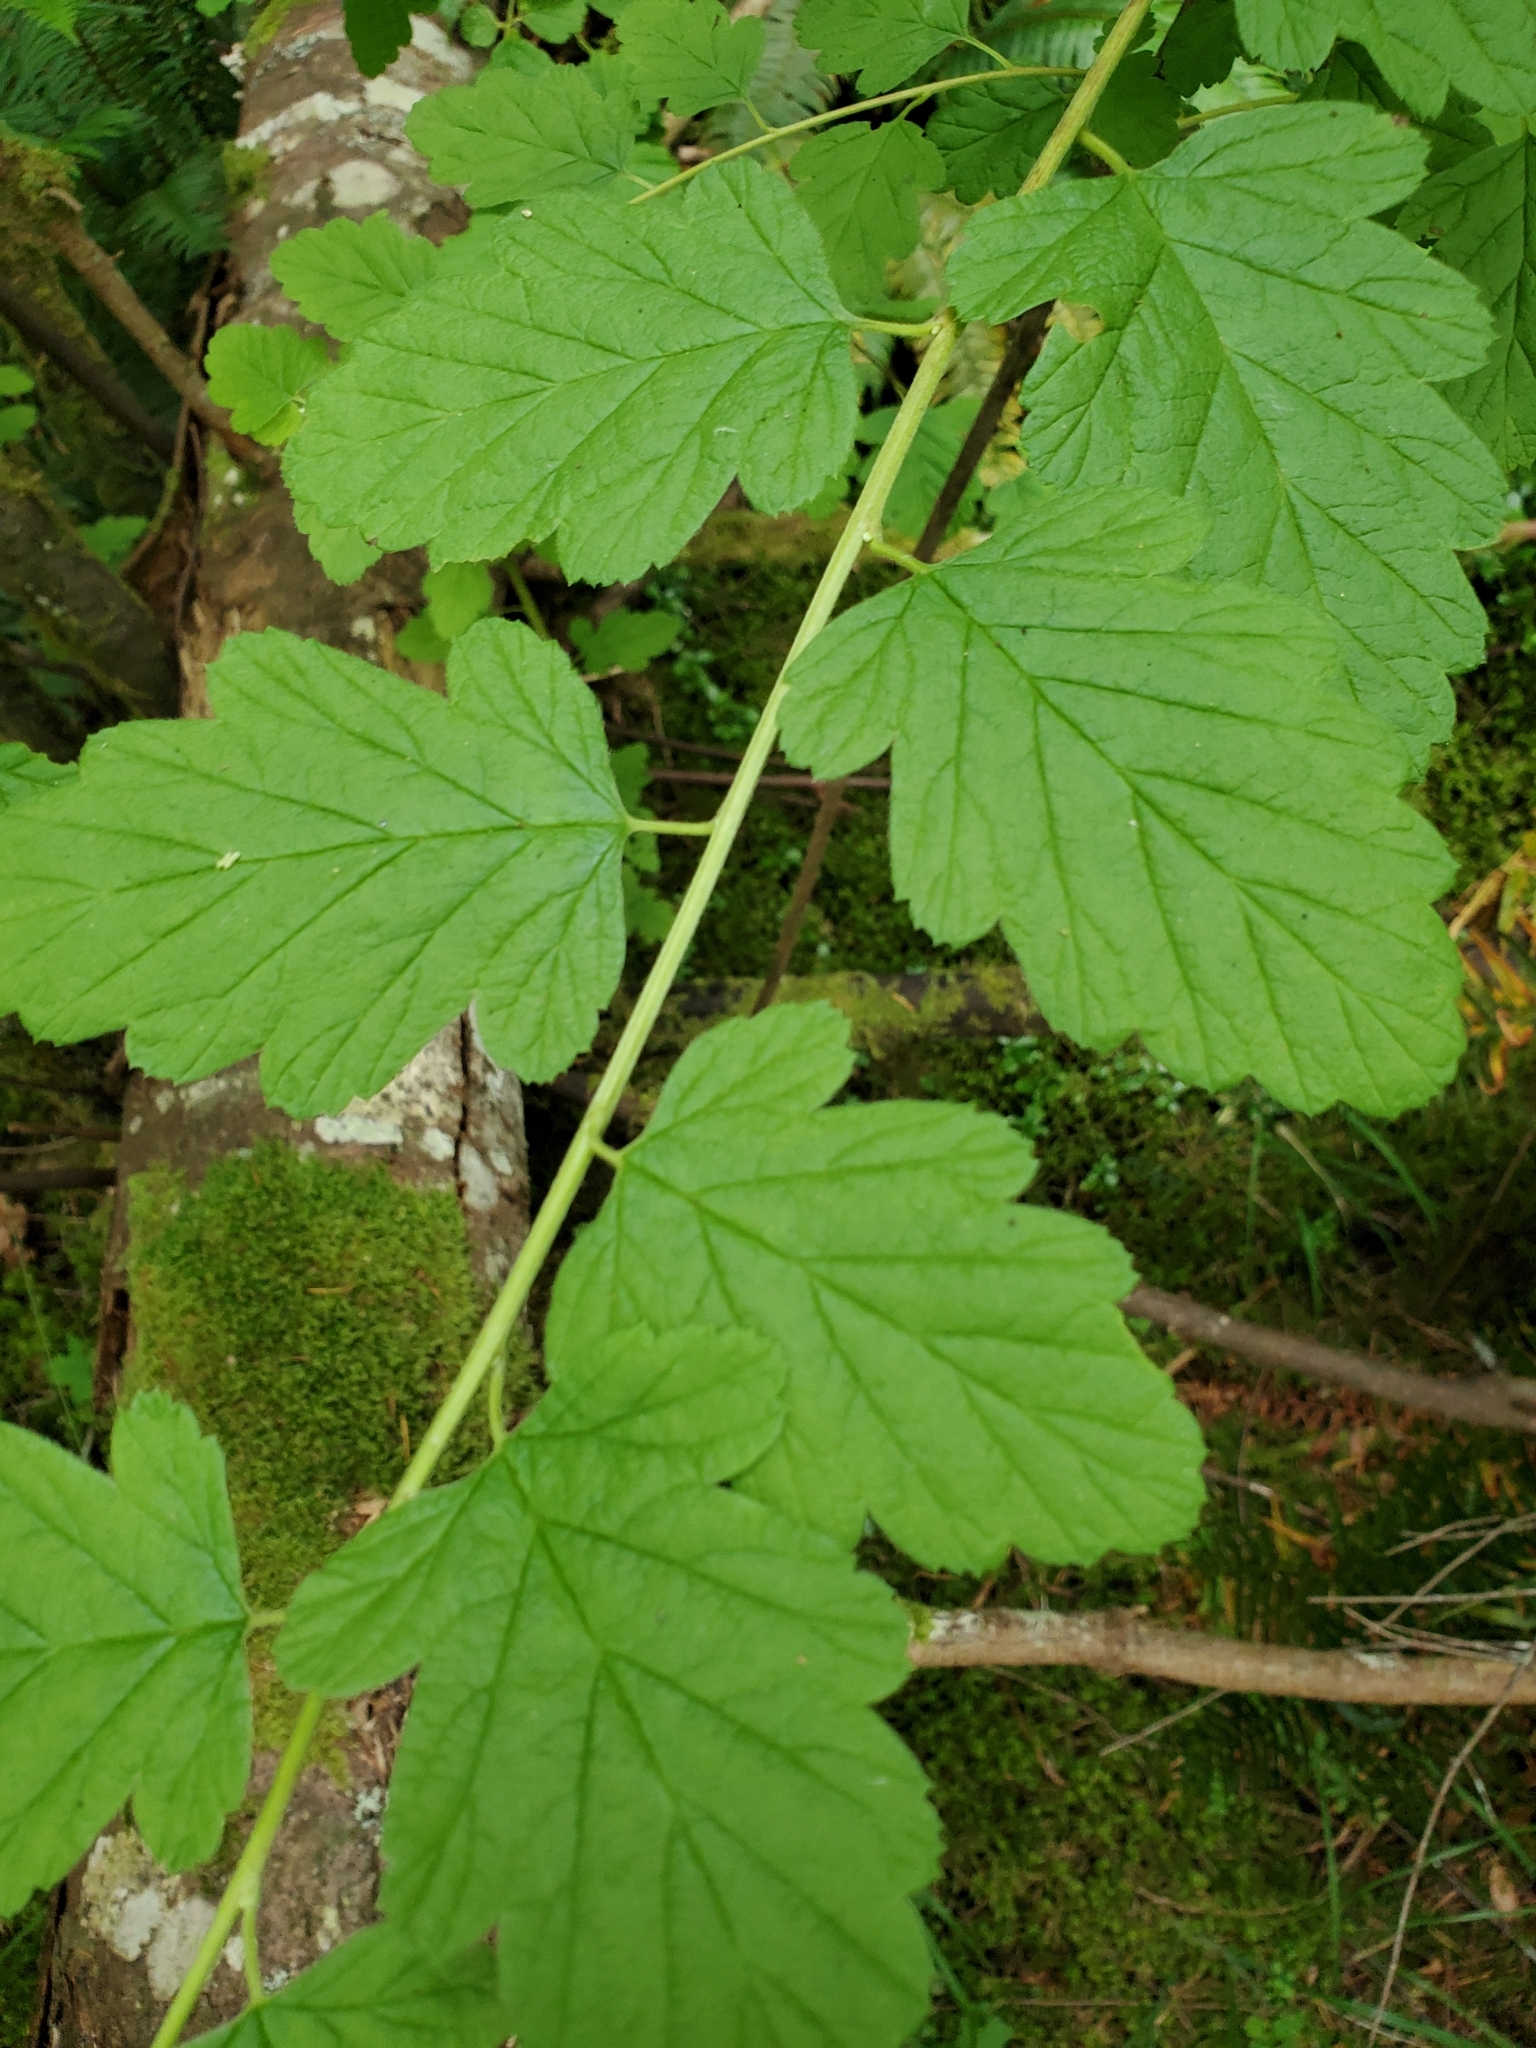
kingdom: Plantae
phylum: Tracheophyta
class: Magnoliopsida
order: Rosales
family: Rosaceae
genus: Holodiscus
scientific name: Holodiscus discolor
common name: Oceanspray
